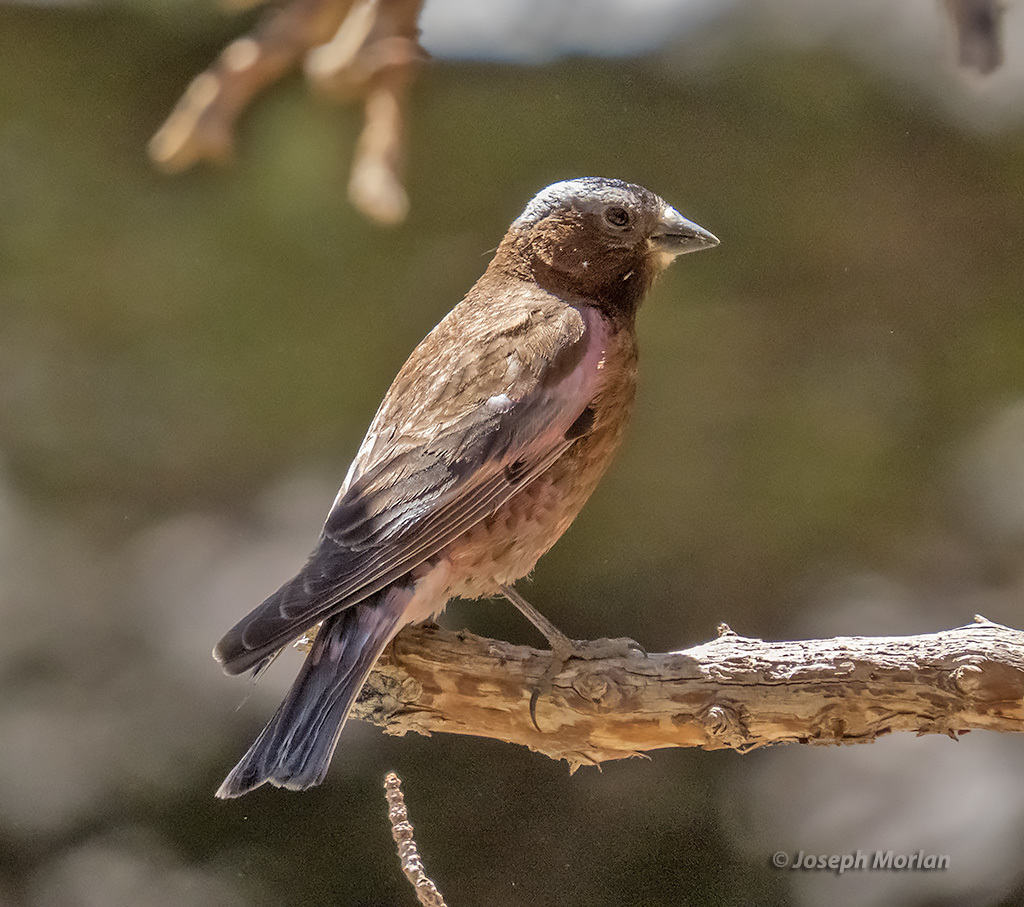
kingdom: Animalia
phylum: Chordata
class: Aves
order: Passeriformes
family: Fringillidae
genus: Leucosticte
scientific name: Leucosticte tephrocotis
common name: Gray-crowned rosy-finch
